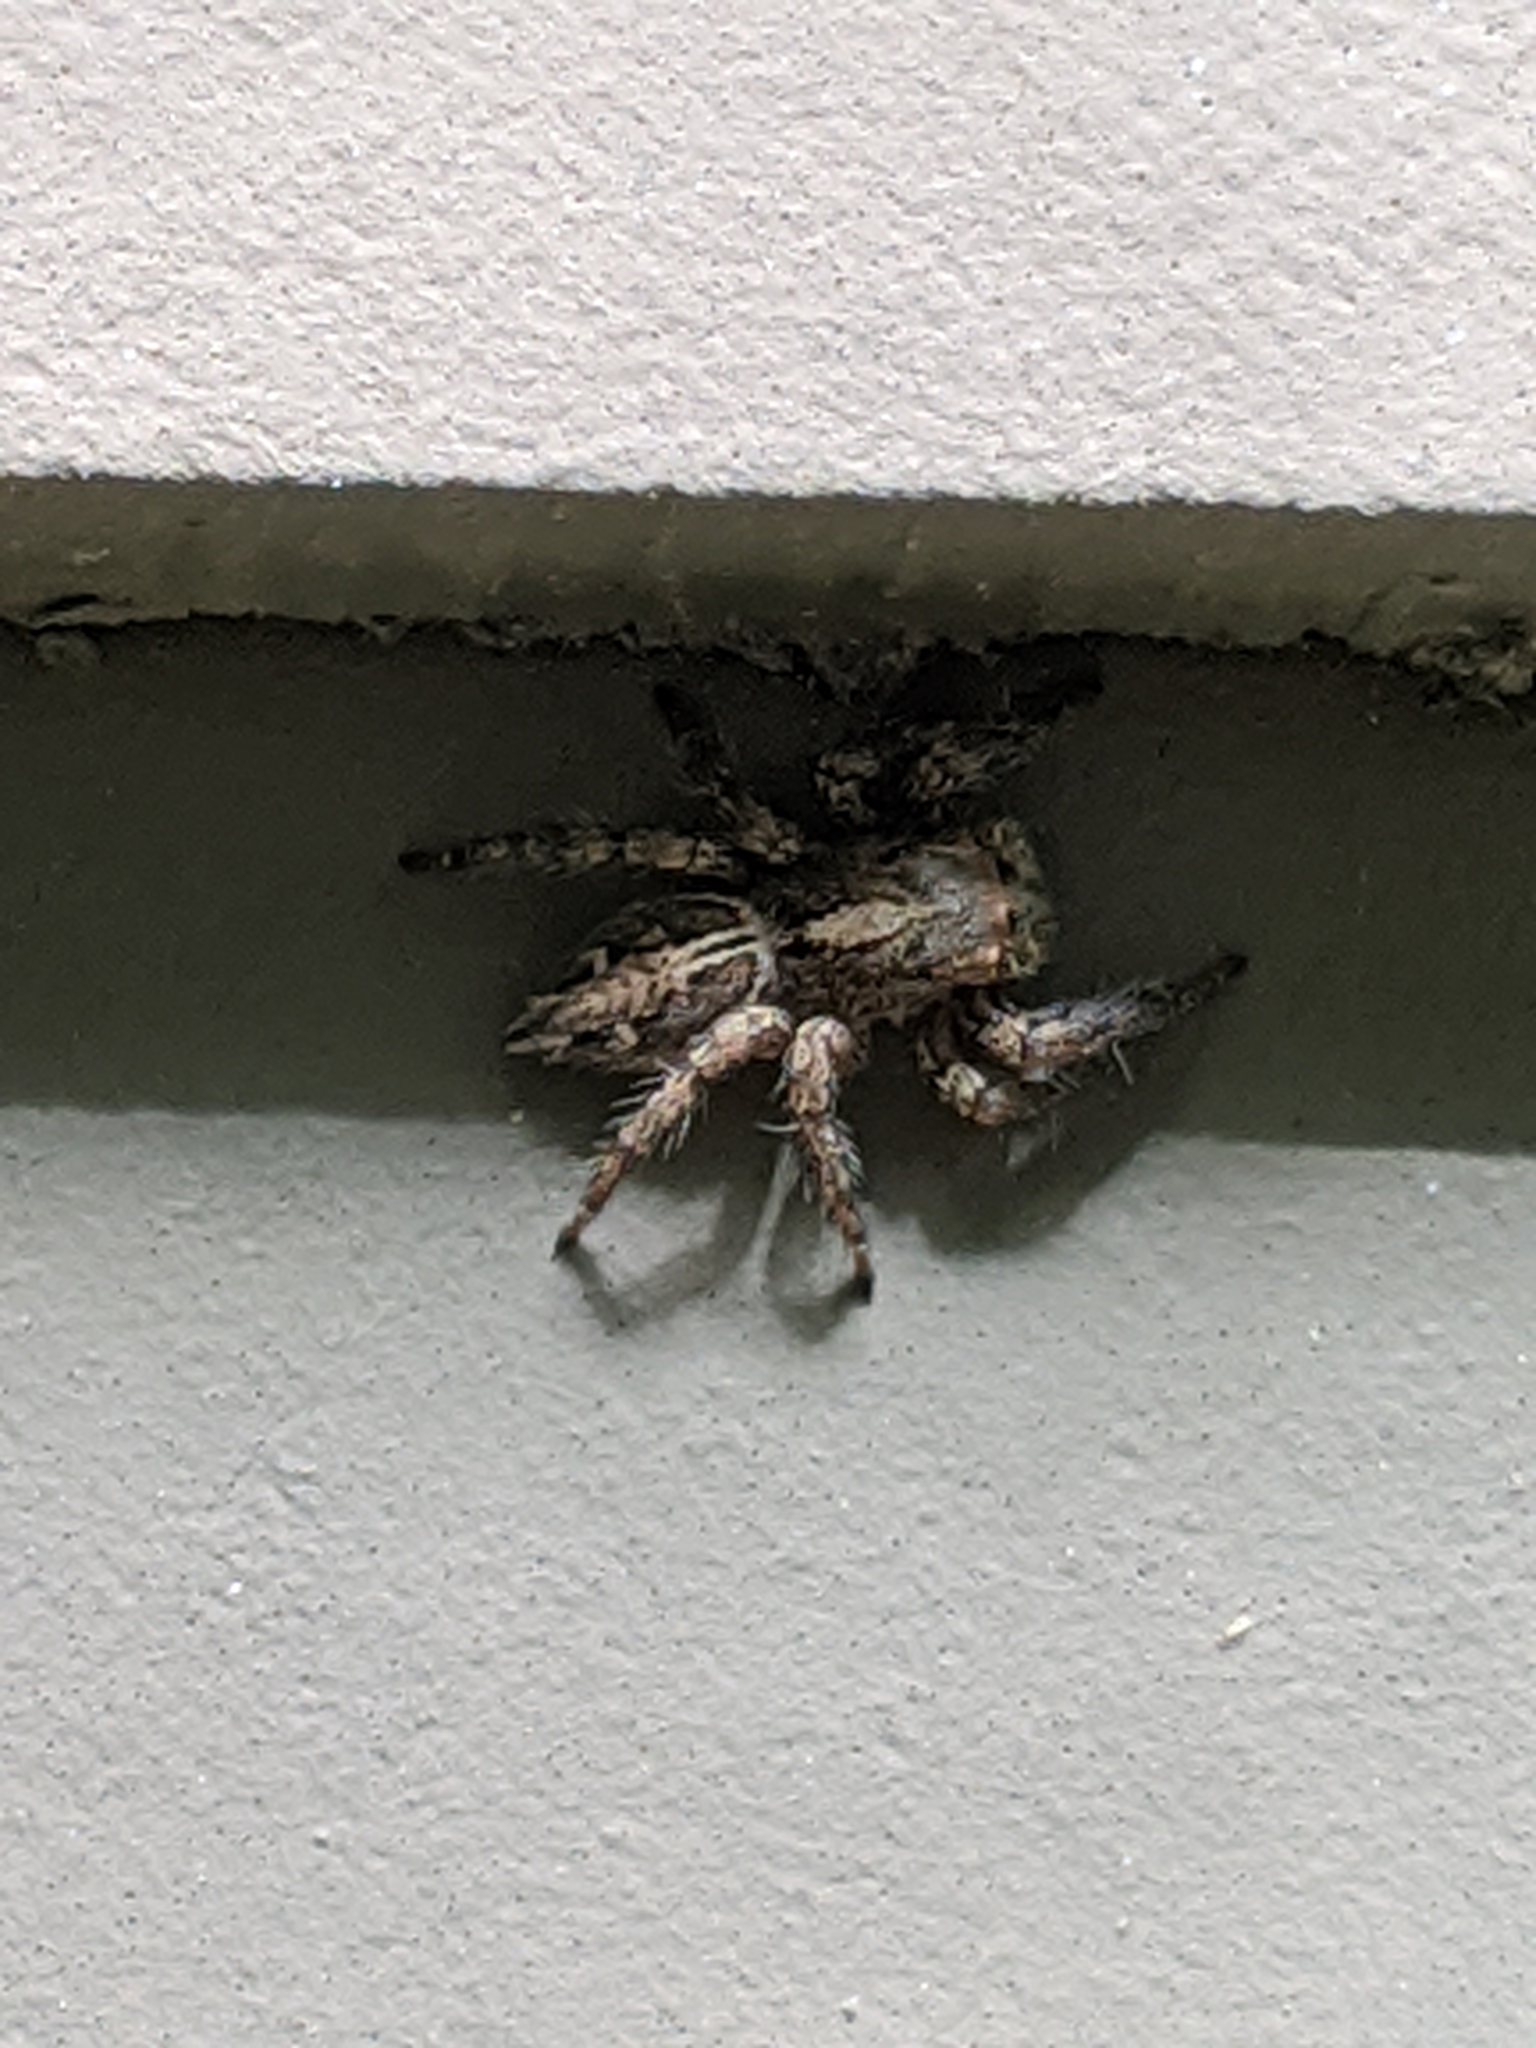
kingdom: Animalia
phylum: Arthropoda
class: Arachnida
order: Araneae
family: Salticidae
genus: Plexippus
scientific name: Plexippus paykulli
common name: Pantropical jumper
